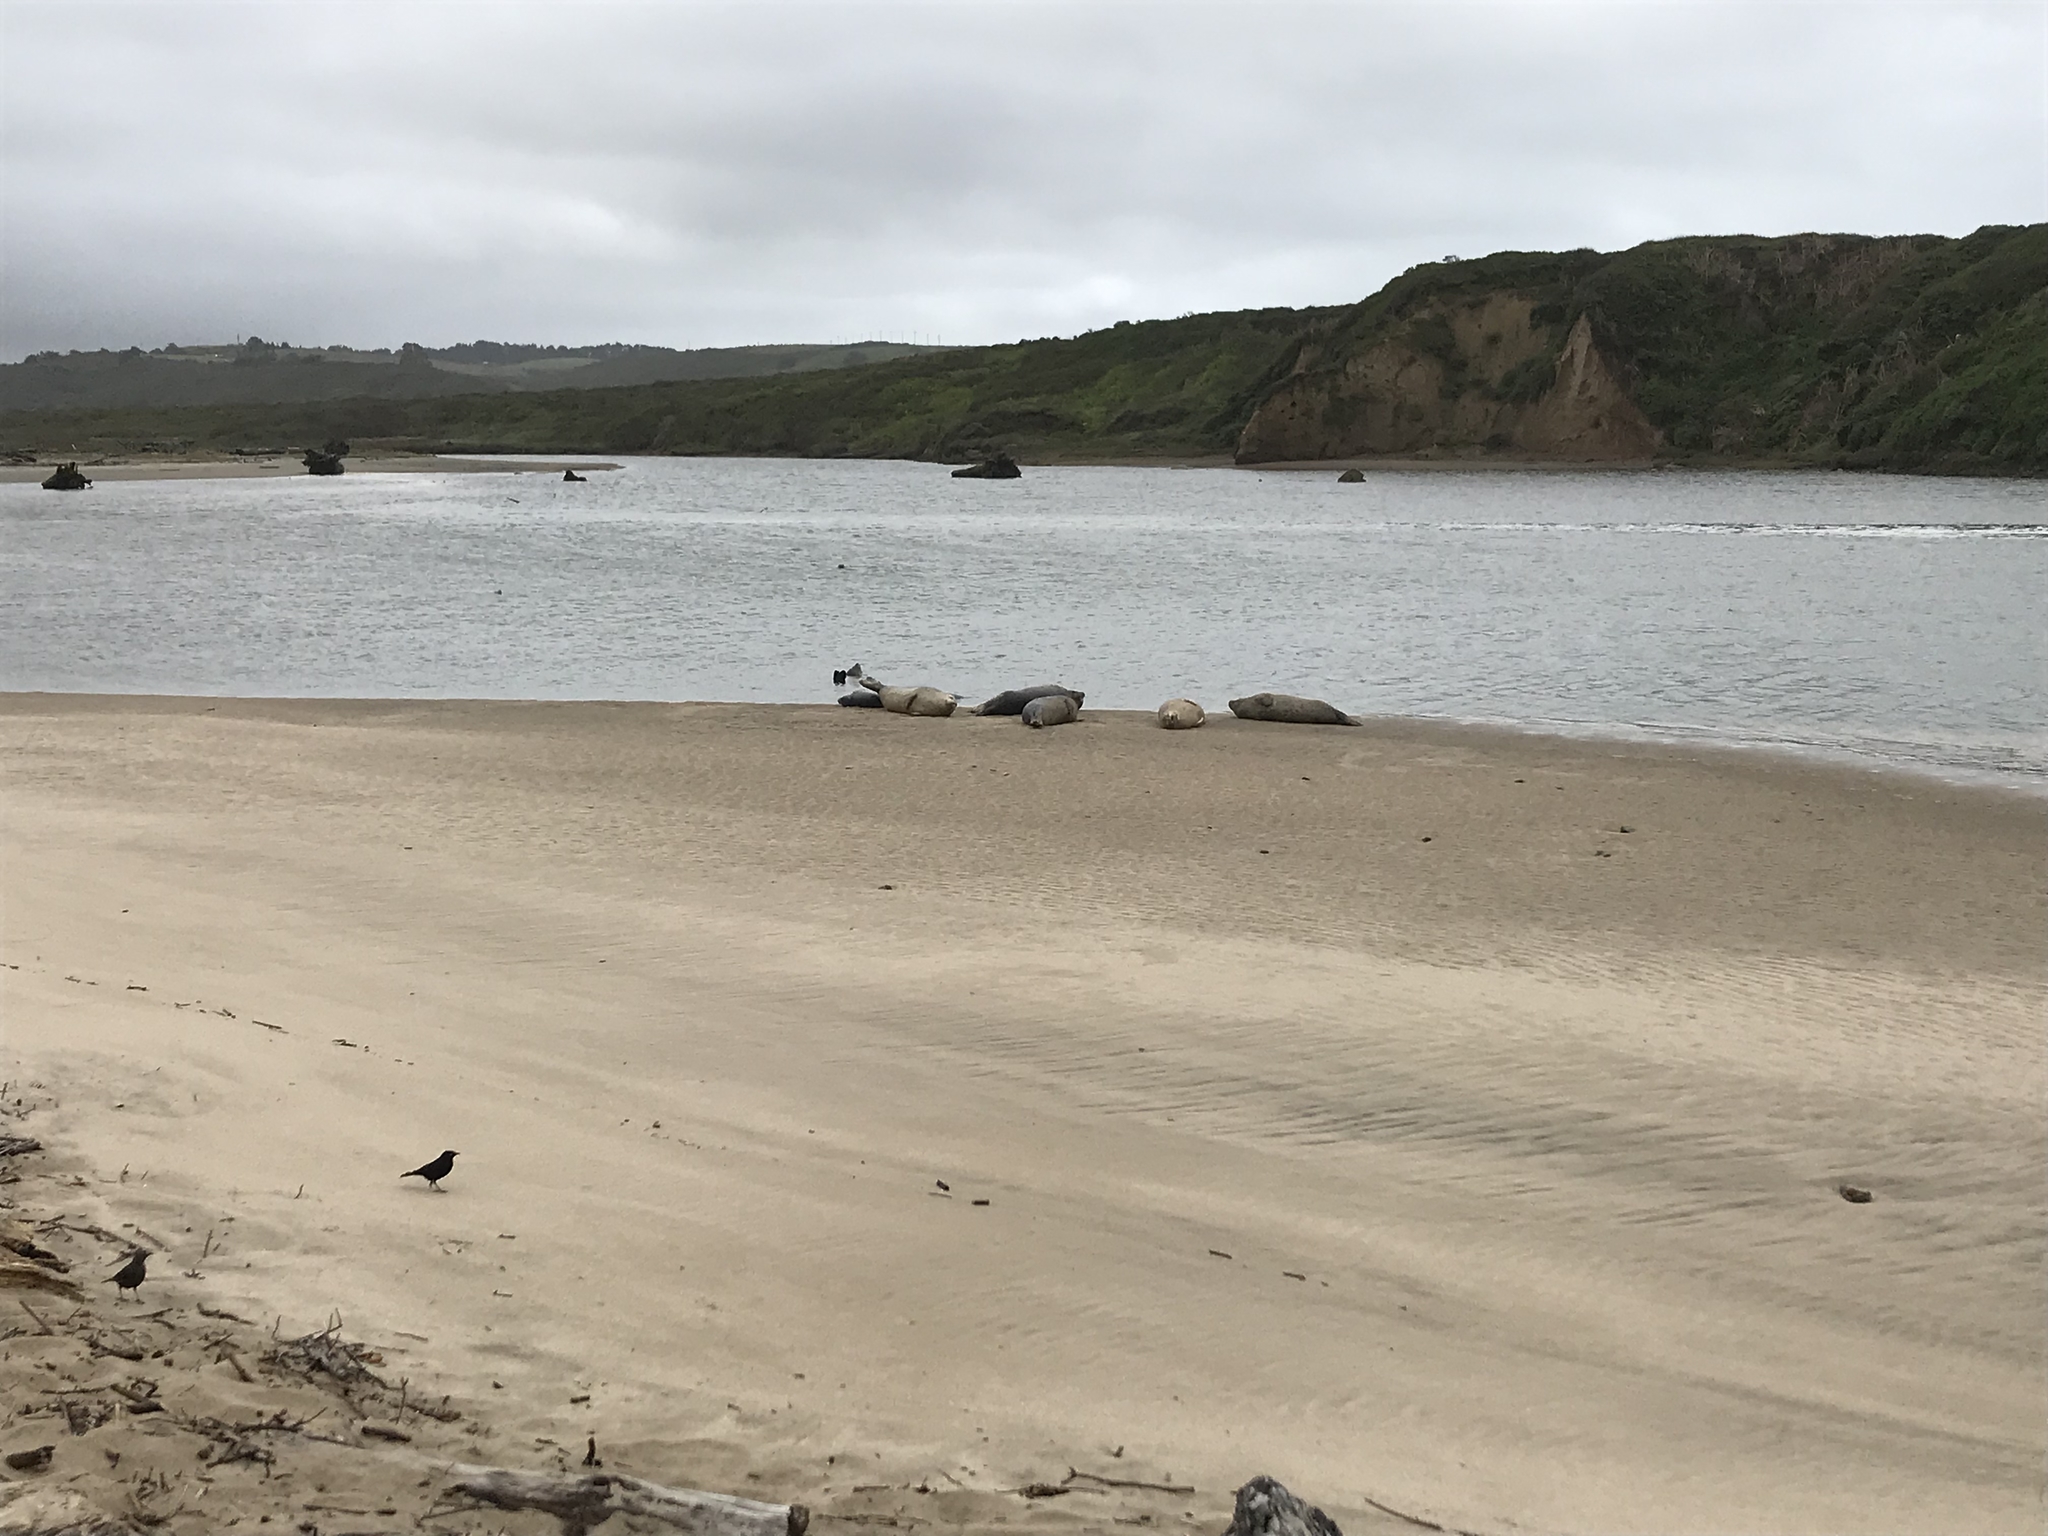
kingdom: Animalia
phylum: Chordata
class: Mammalia
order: Carnivora
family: Phocidae
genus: Phoca
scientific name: Phoca vitulina
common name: Harbor seal
